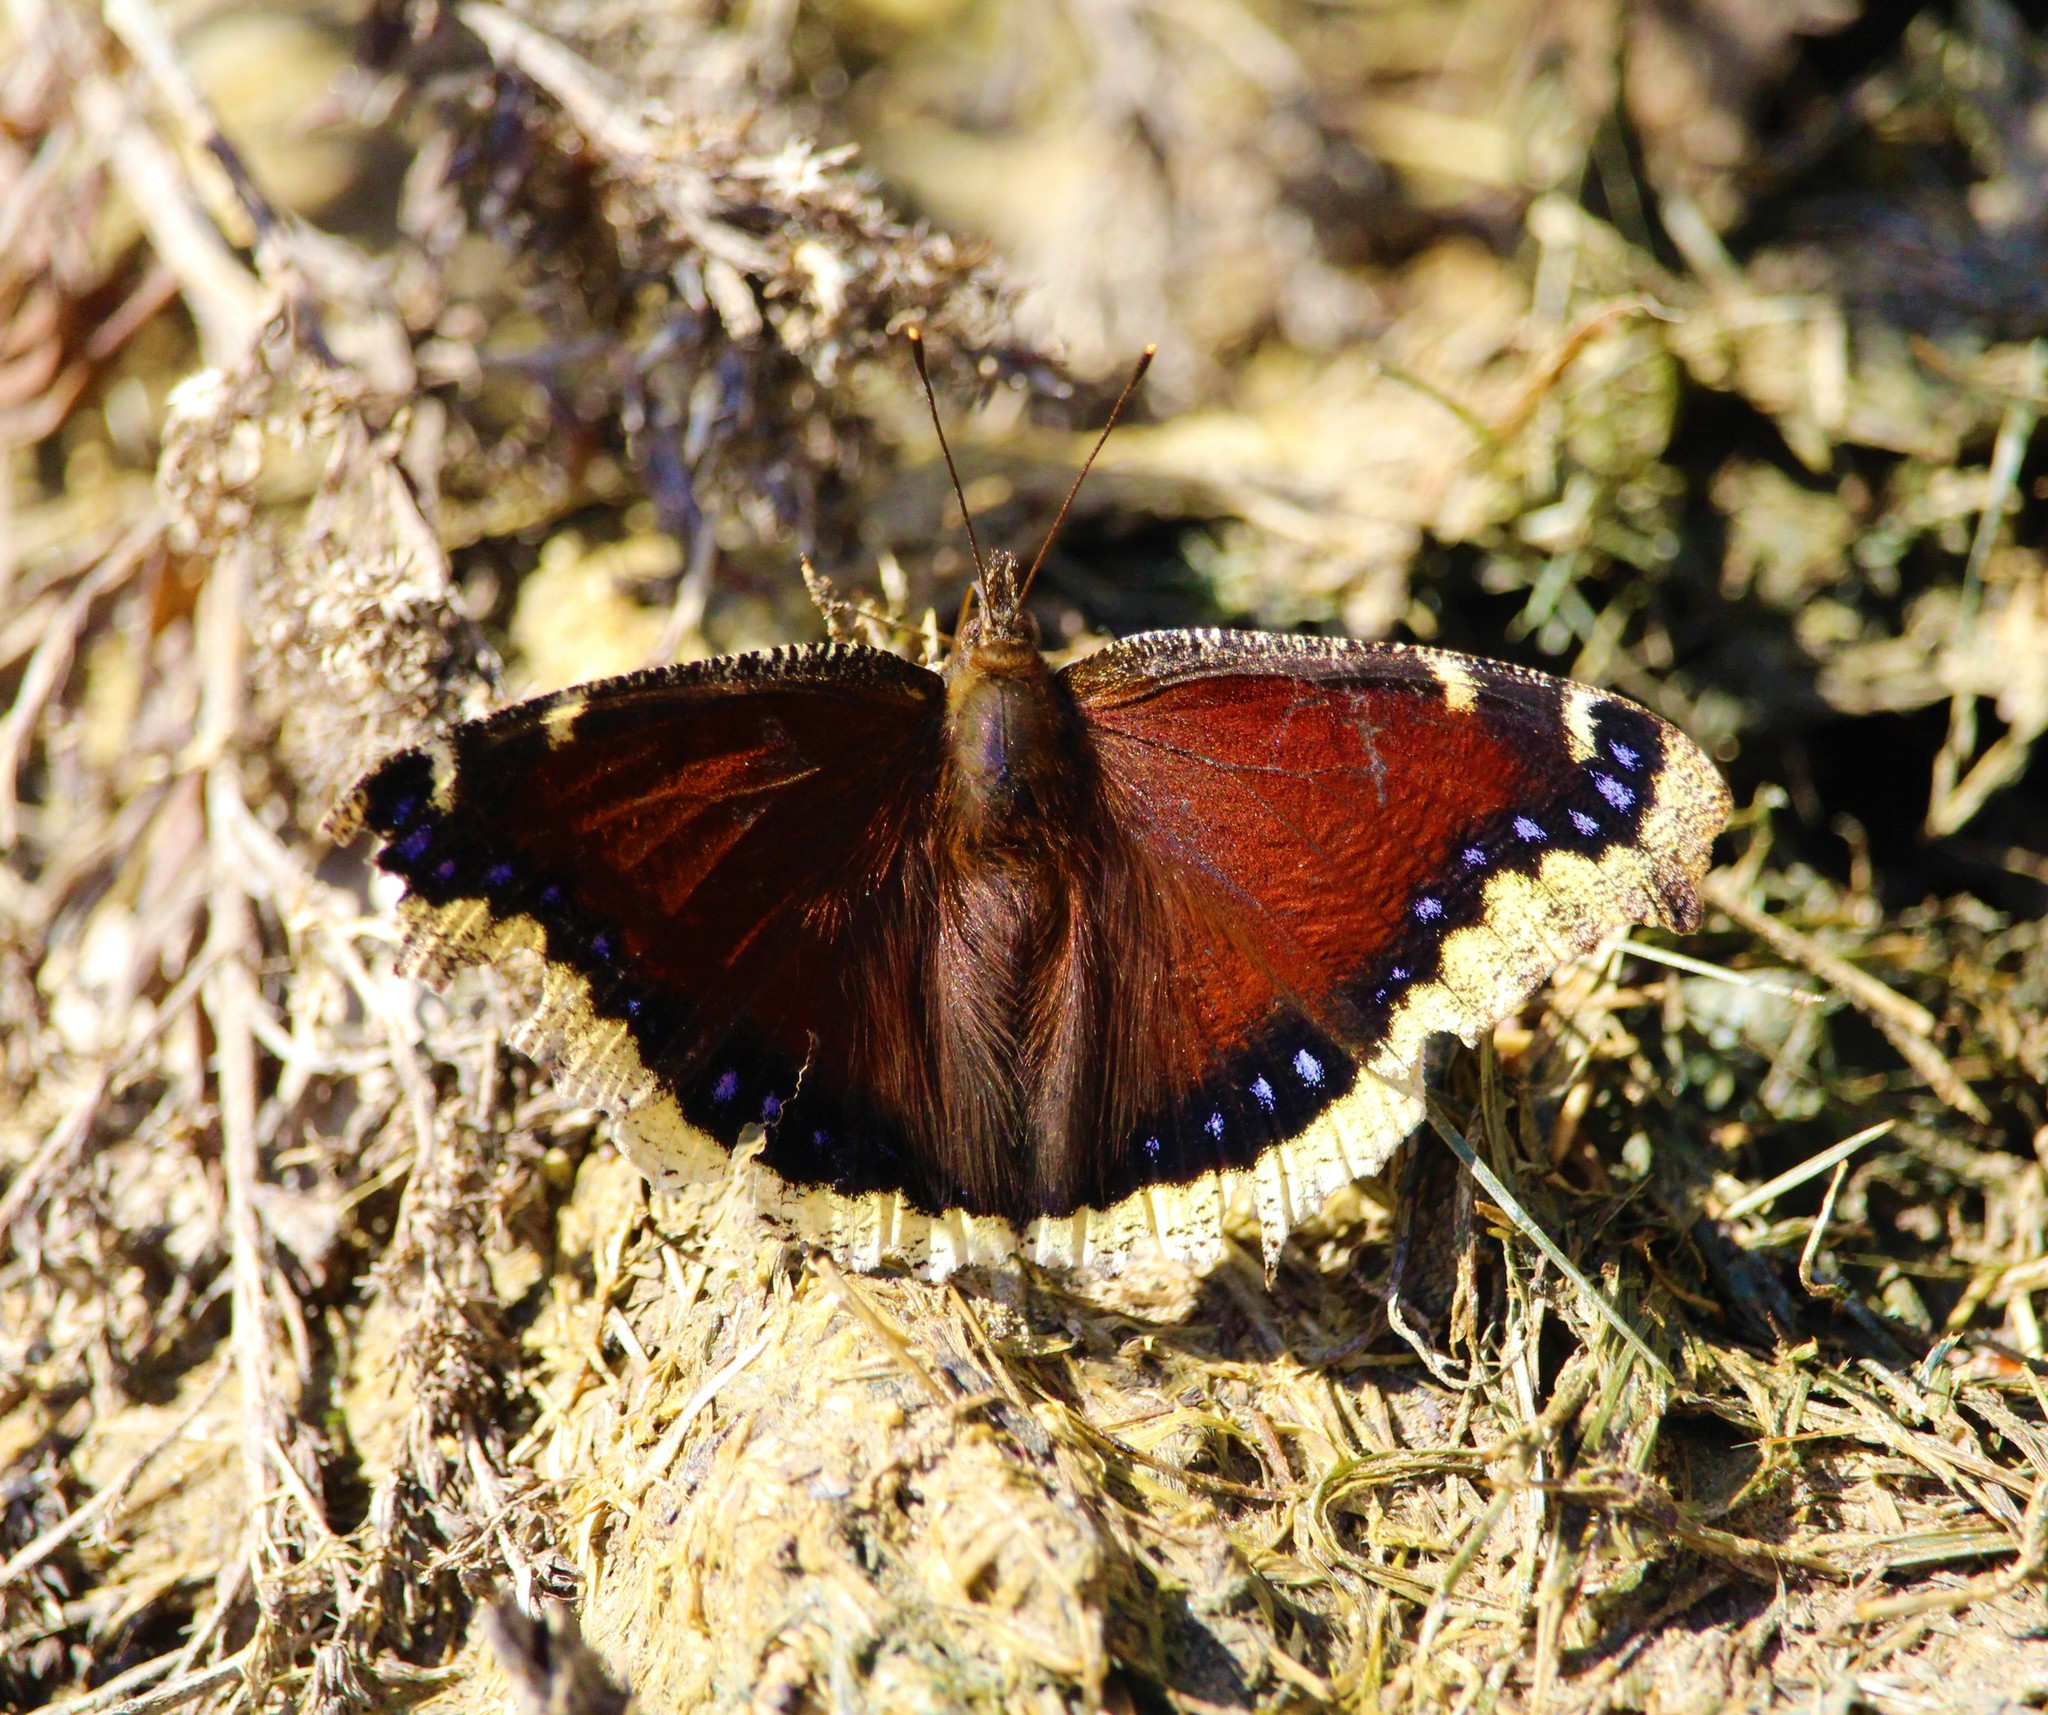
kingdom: Animalia
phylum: Arthropoda
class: Insecta
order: Lepidoptera
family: Nymphalidae
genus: Nymphalis
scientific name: Nymphalis antiopa
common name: Camberwell beauty
